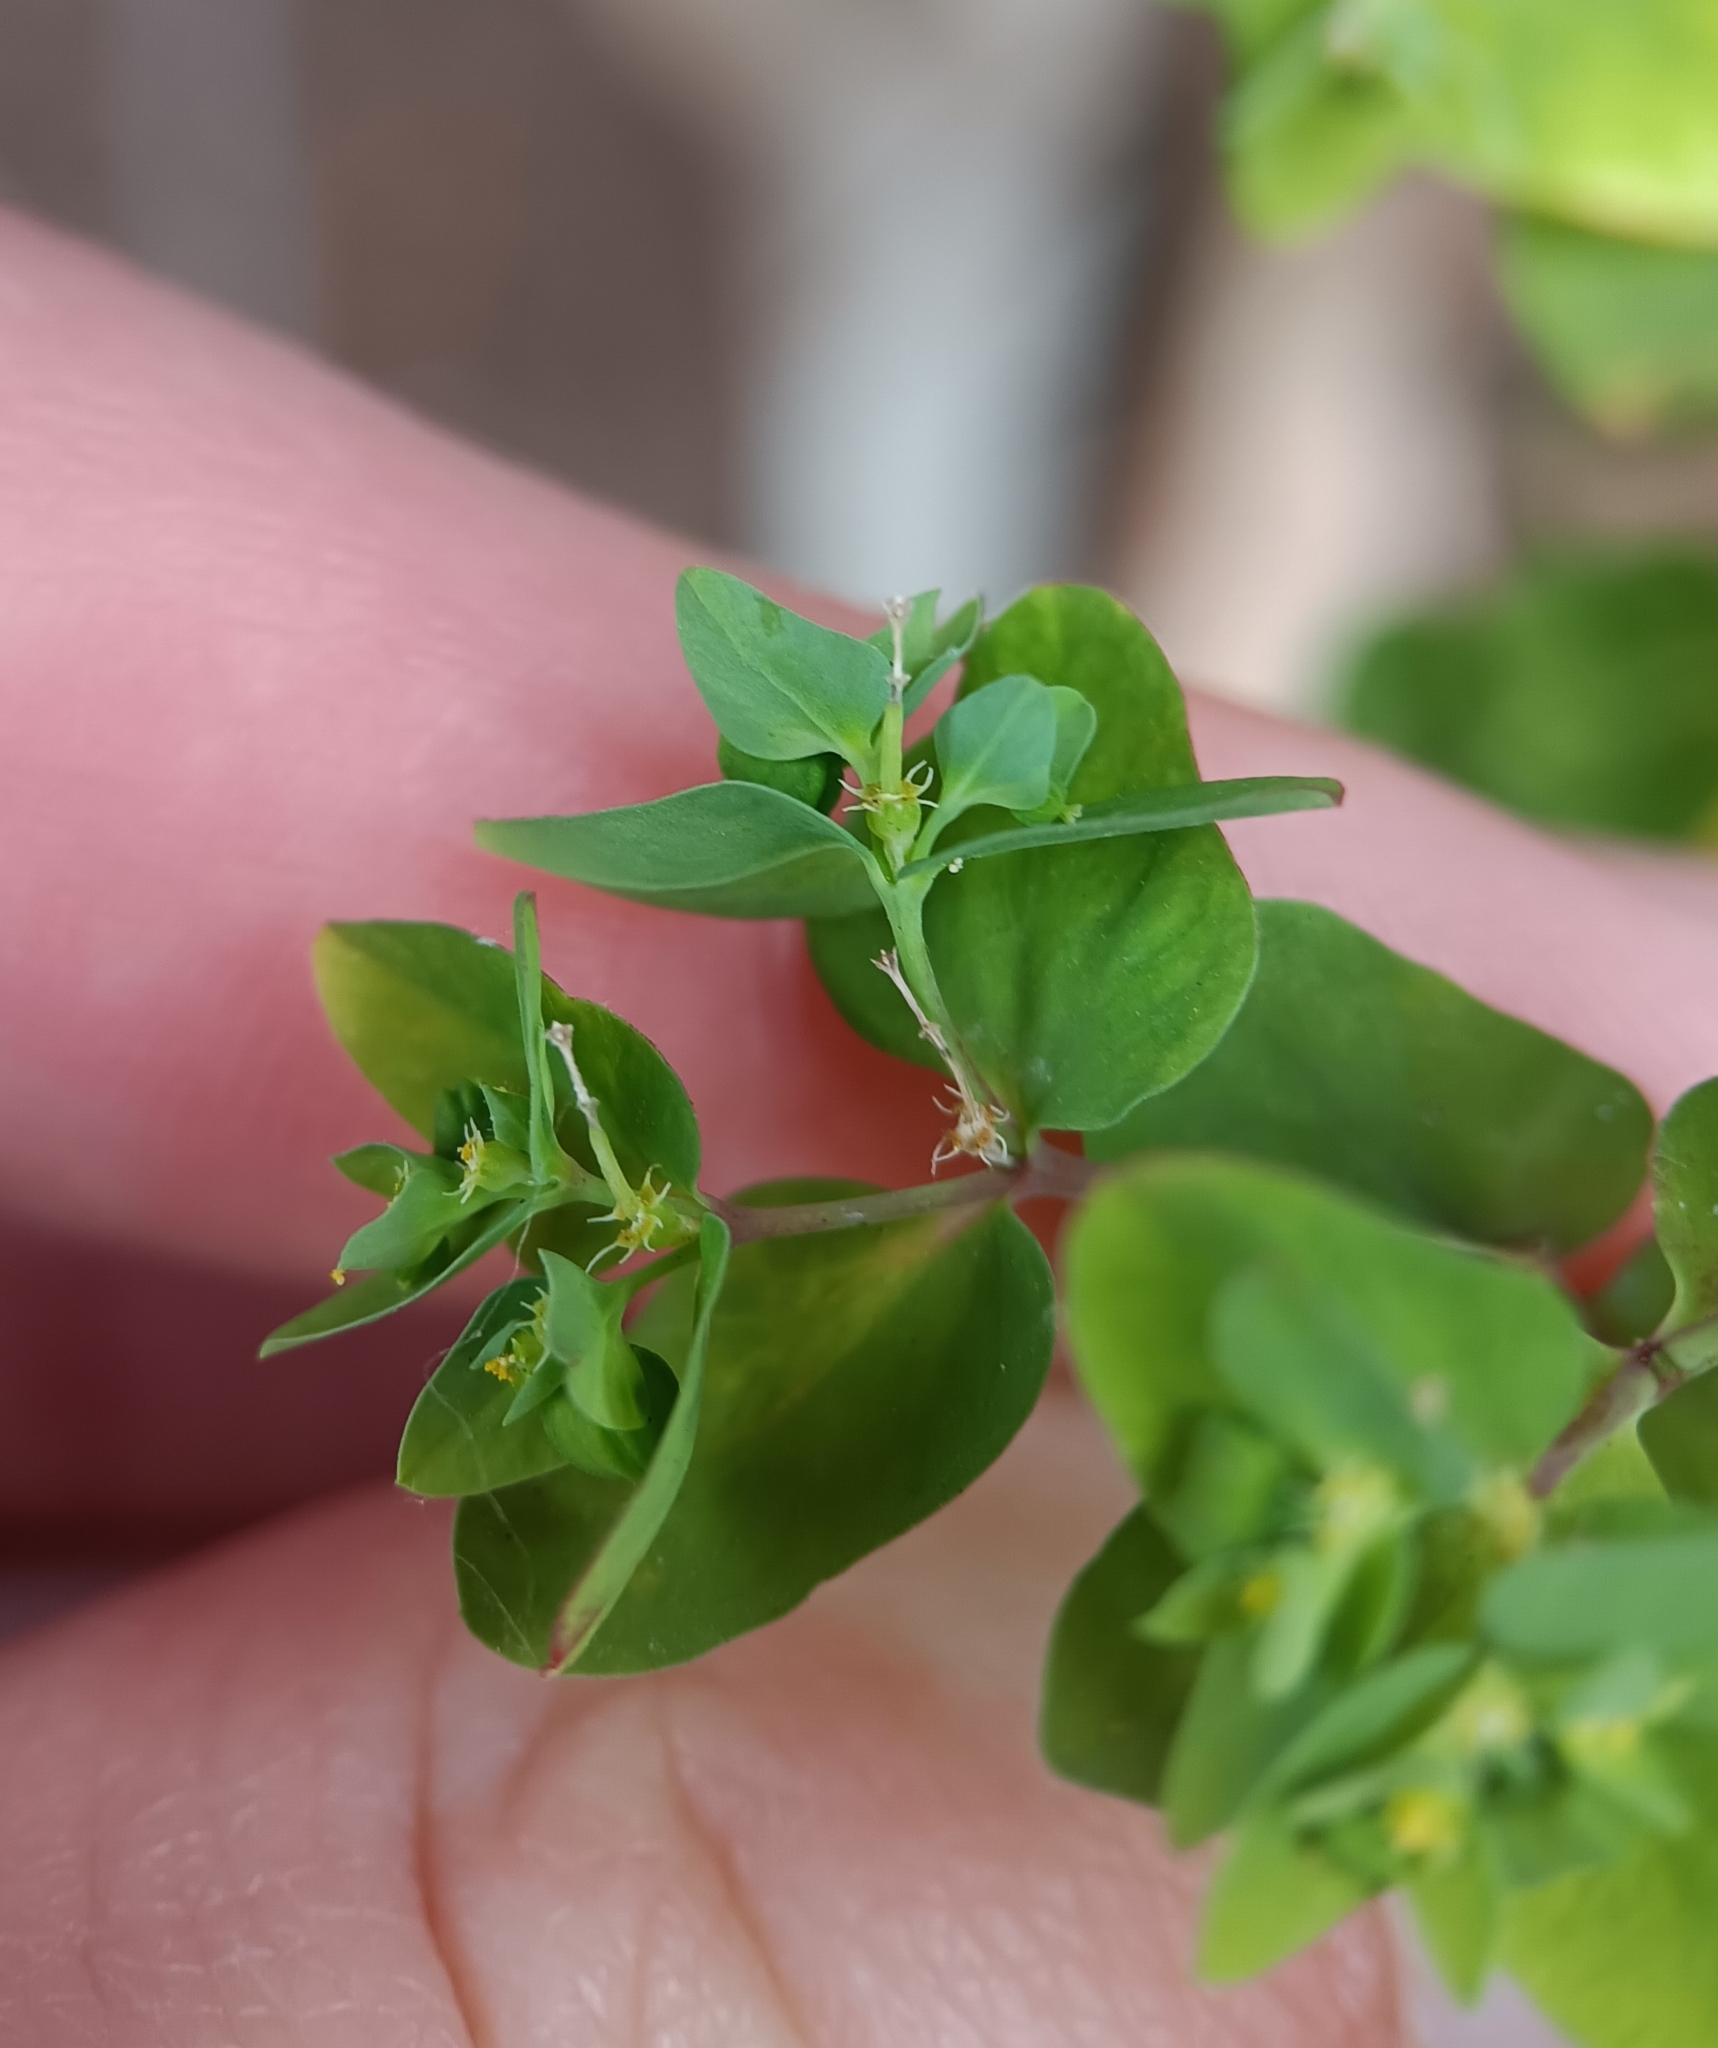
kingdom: Plantae
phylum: Tracheophyta
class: Magnoliopsida
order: Malpighiales
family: Euphorbiaceae
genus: Euphorbia
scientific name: Euphorbia peplus
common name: Petty spurge
